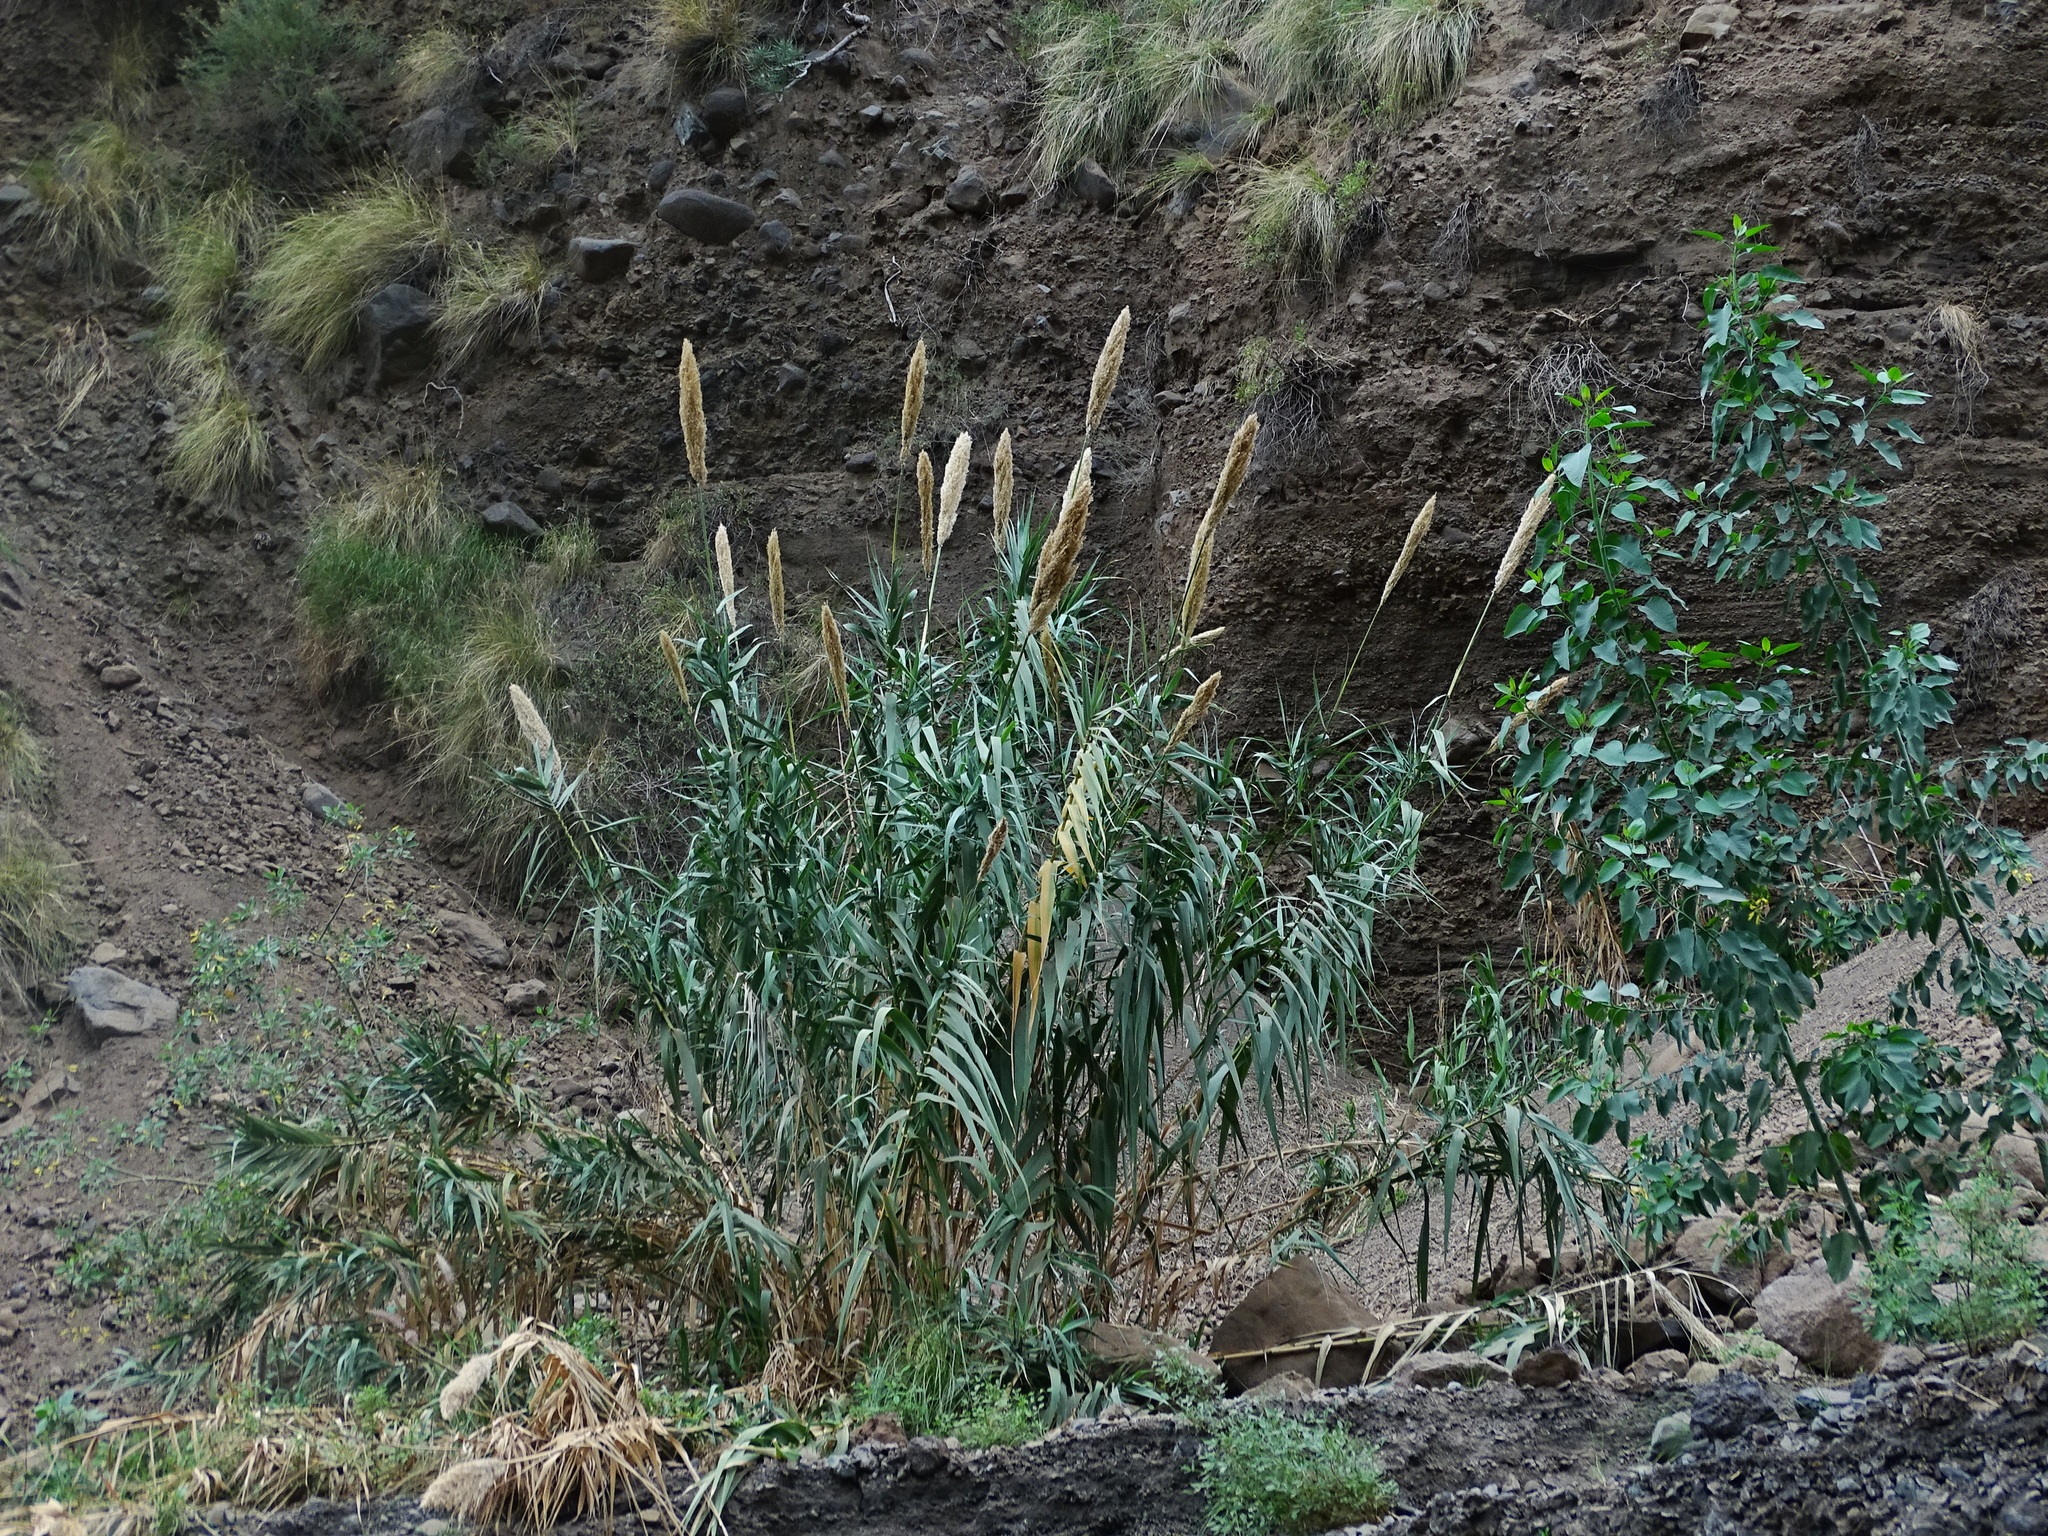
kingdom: Plantae
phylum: Tracheophyta
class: Liliopsida
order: Poales
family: Poaceae
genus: Arundo
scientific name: Arundo donax
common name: Giant reed
